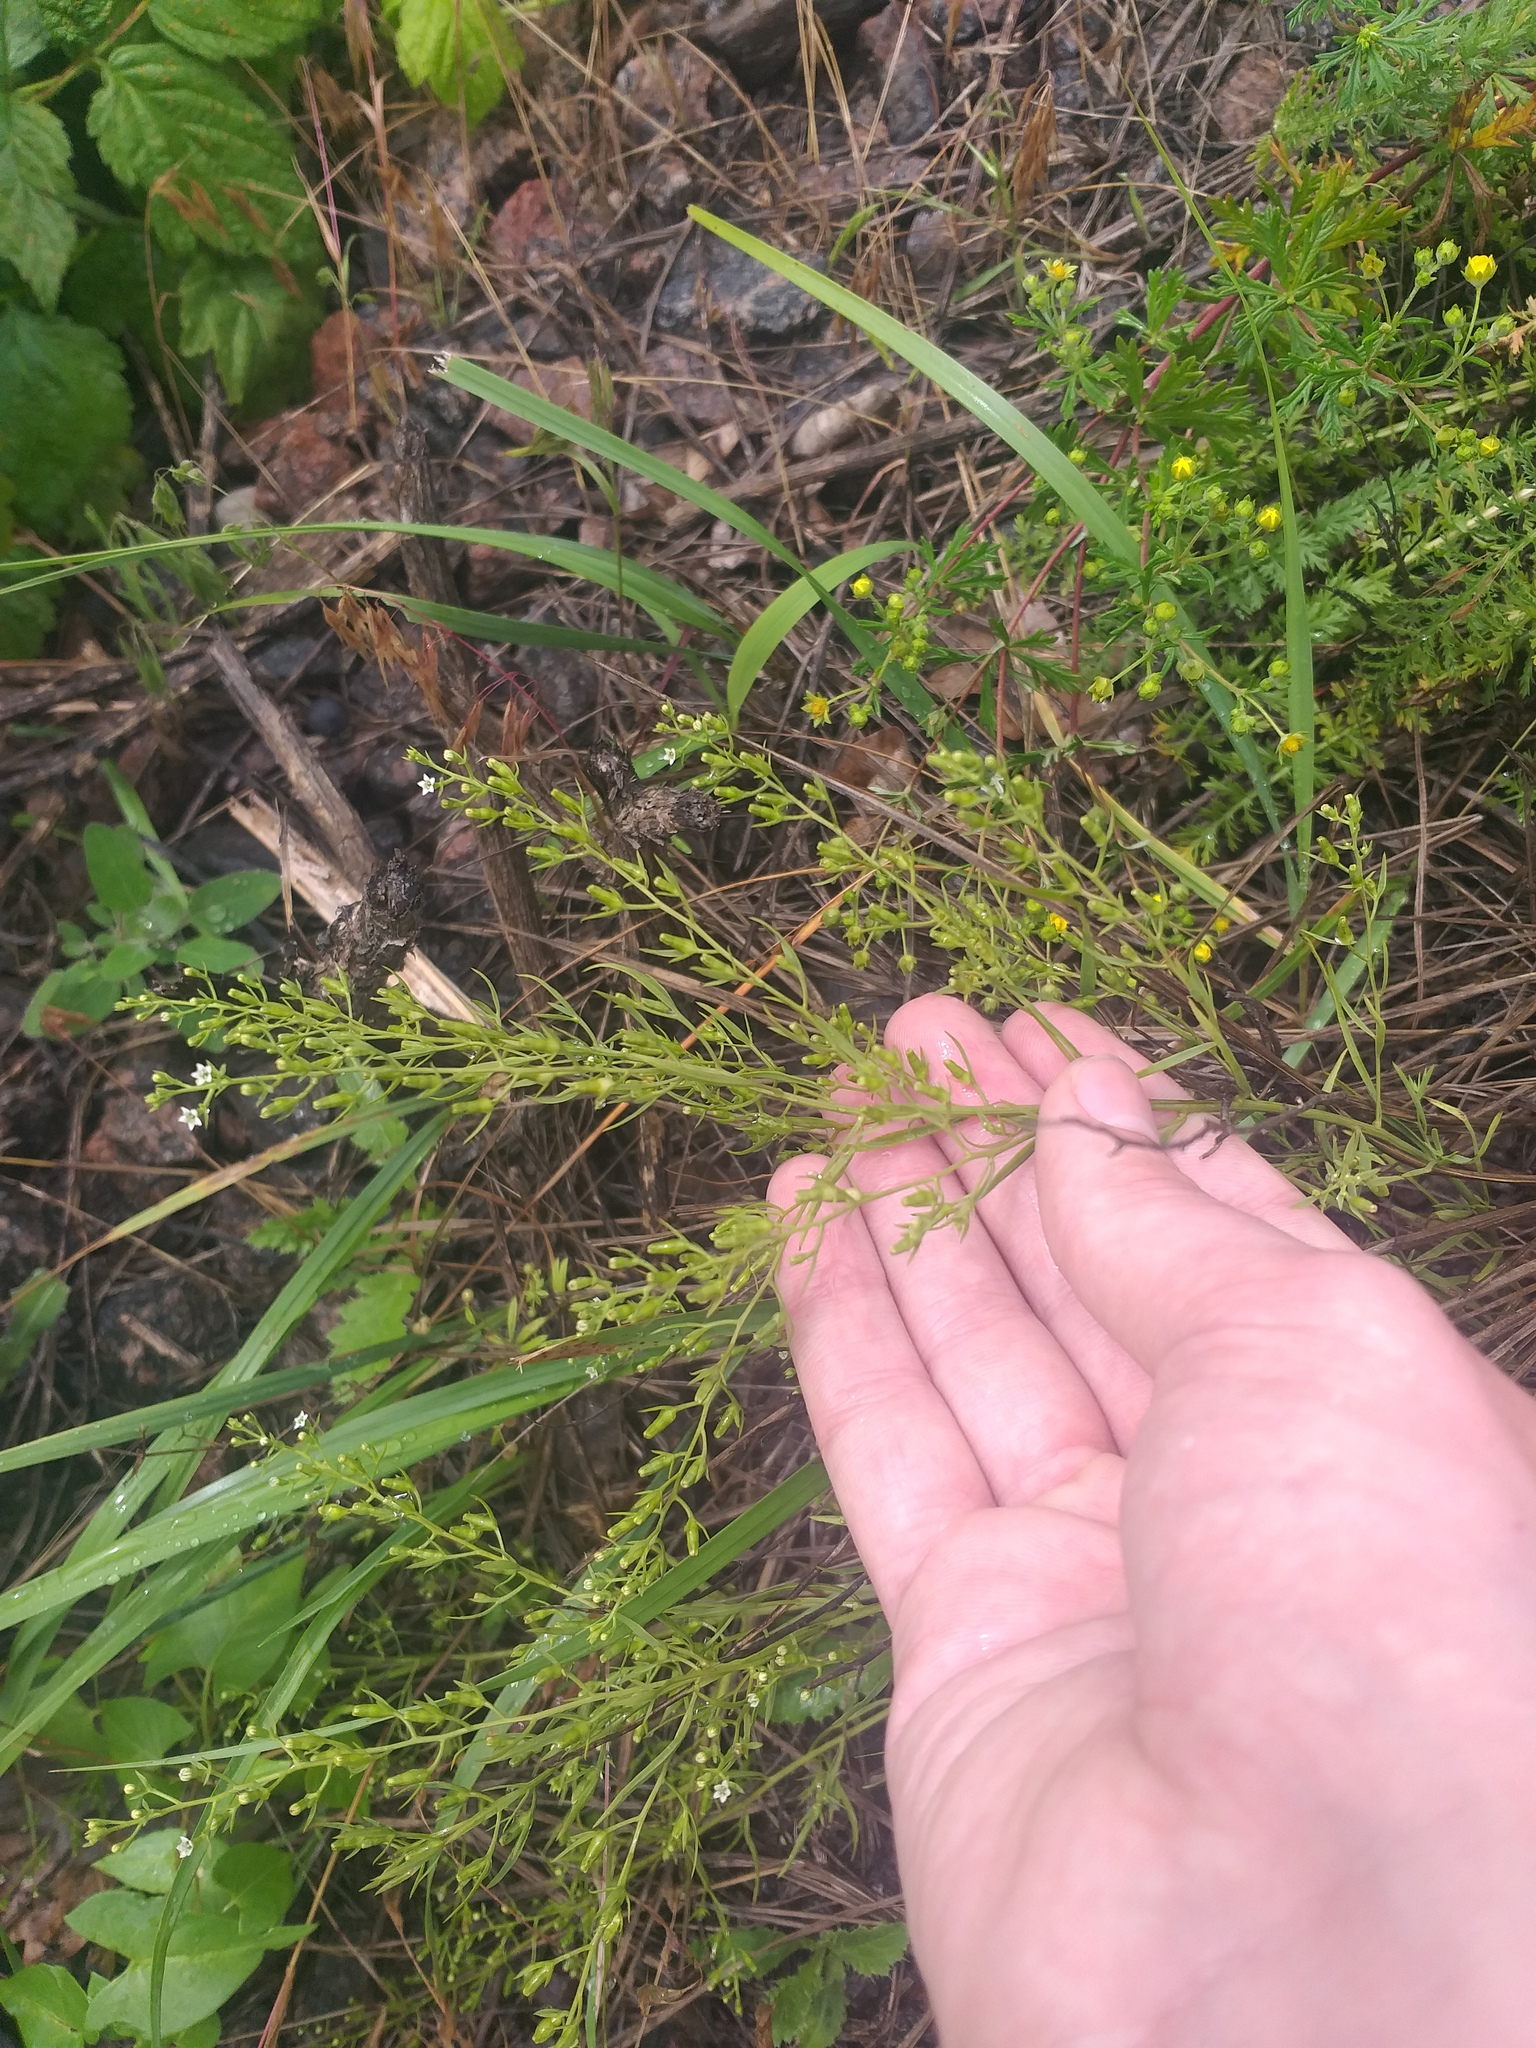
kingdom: Plantae
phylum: Tracheophyta
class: Magnoliopsida
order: Santalales
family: Thesiaceae
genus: Thesium
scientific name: Thesium ramosum
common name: Field thesium
